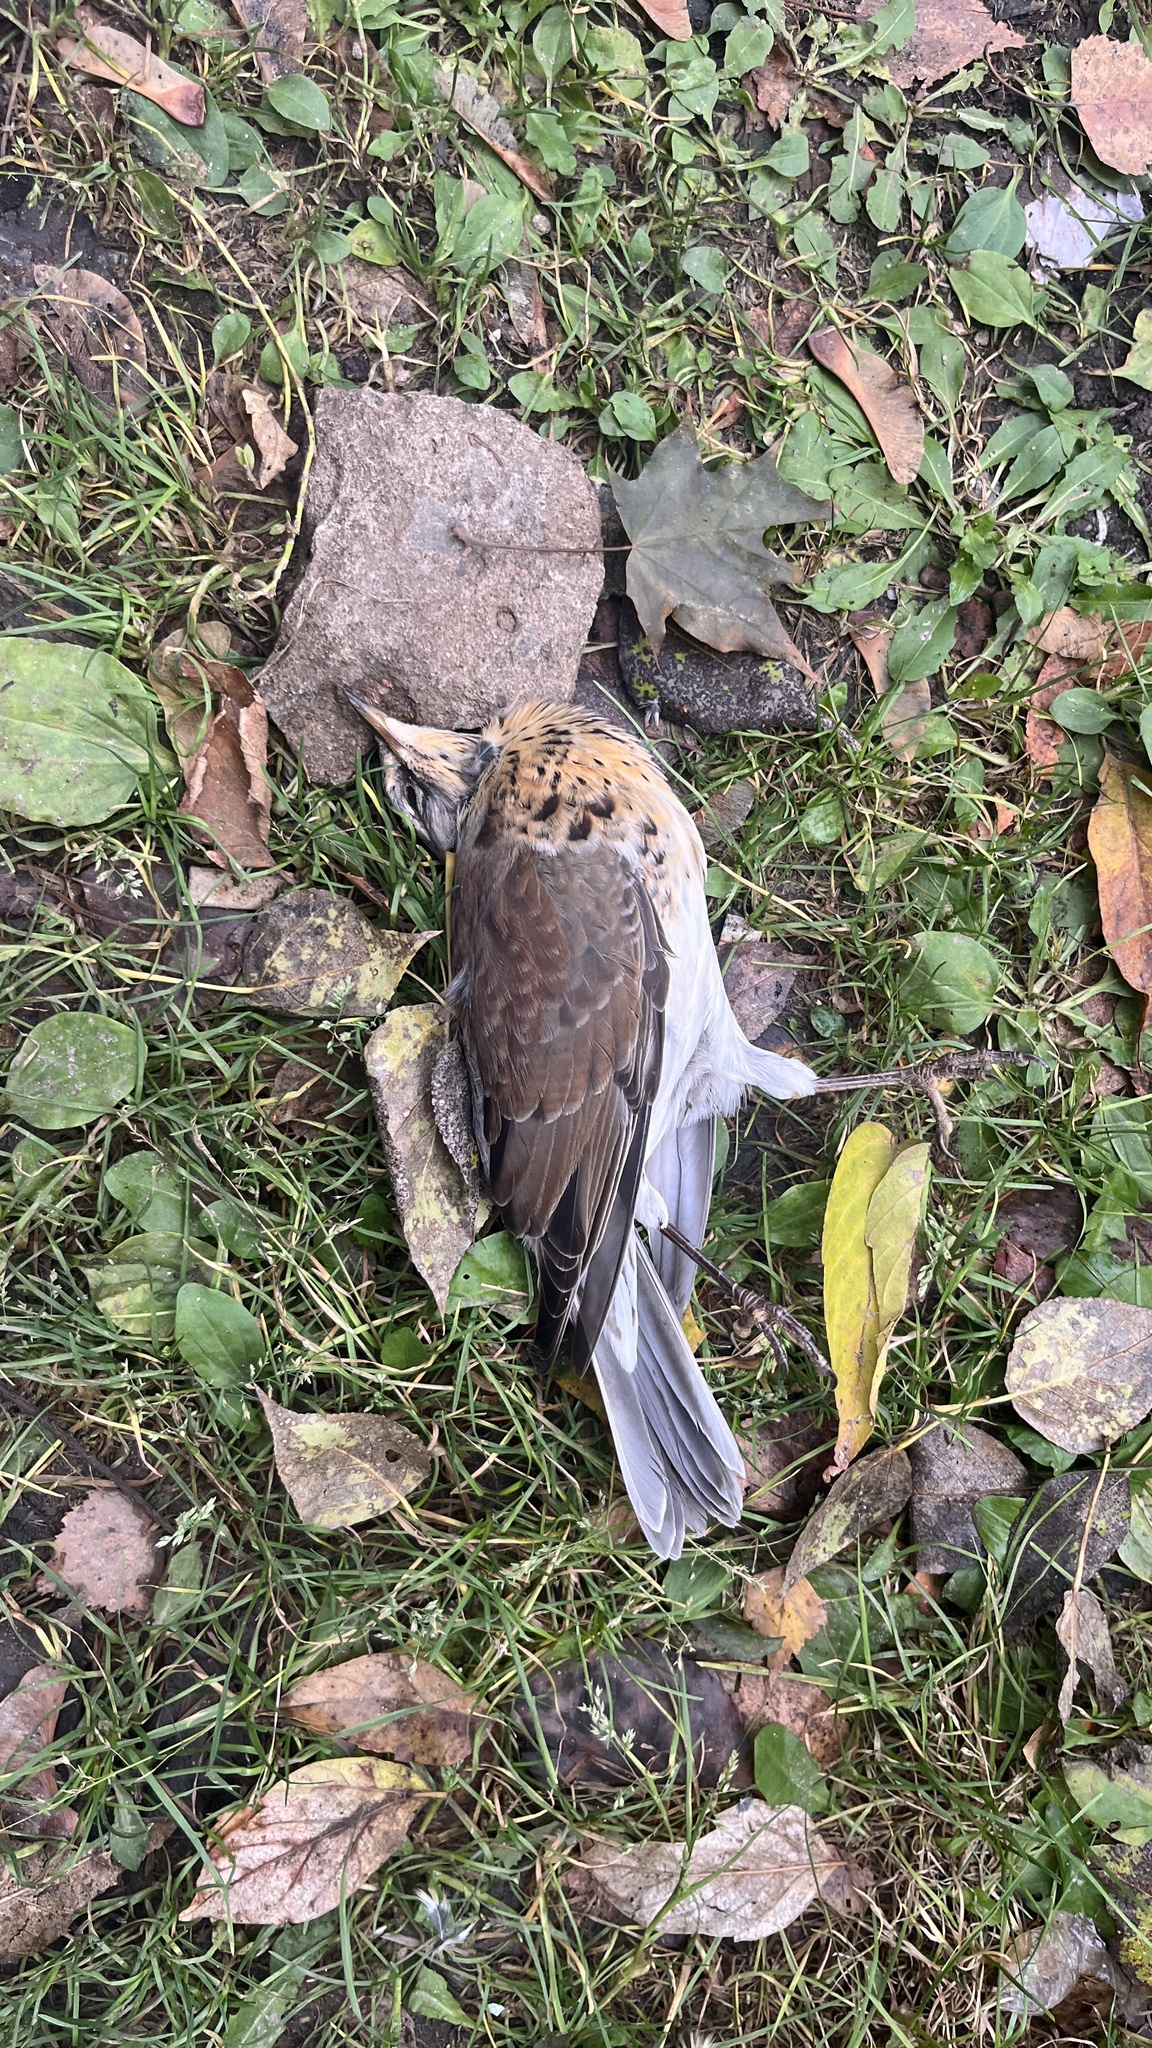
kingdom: Animalia
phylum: Chordata
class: Aves
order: Passeriformes
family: Turdidae
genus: Turdus
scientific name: Turdus pilaris
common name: Fieldfare
